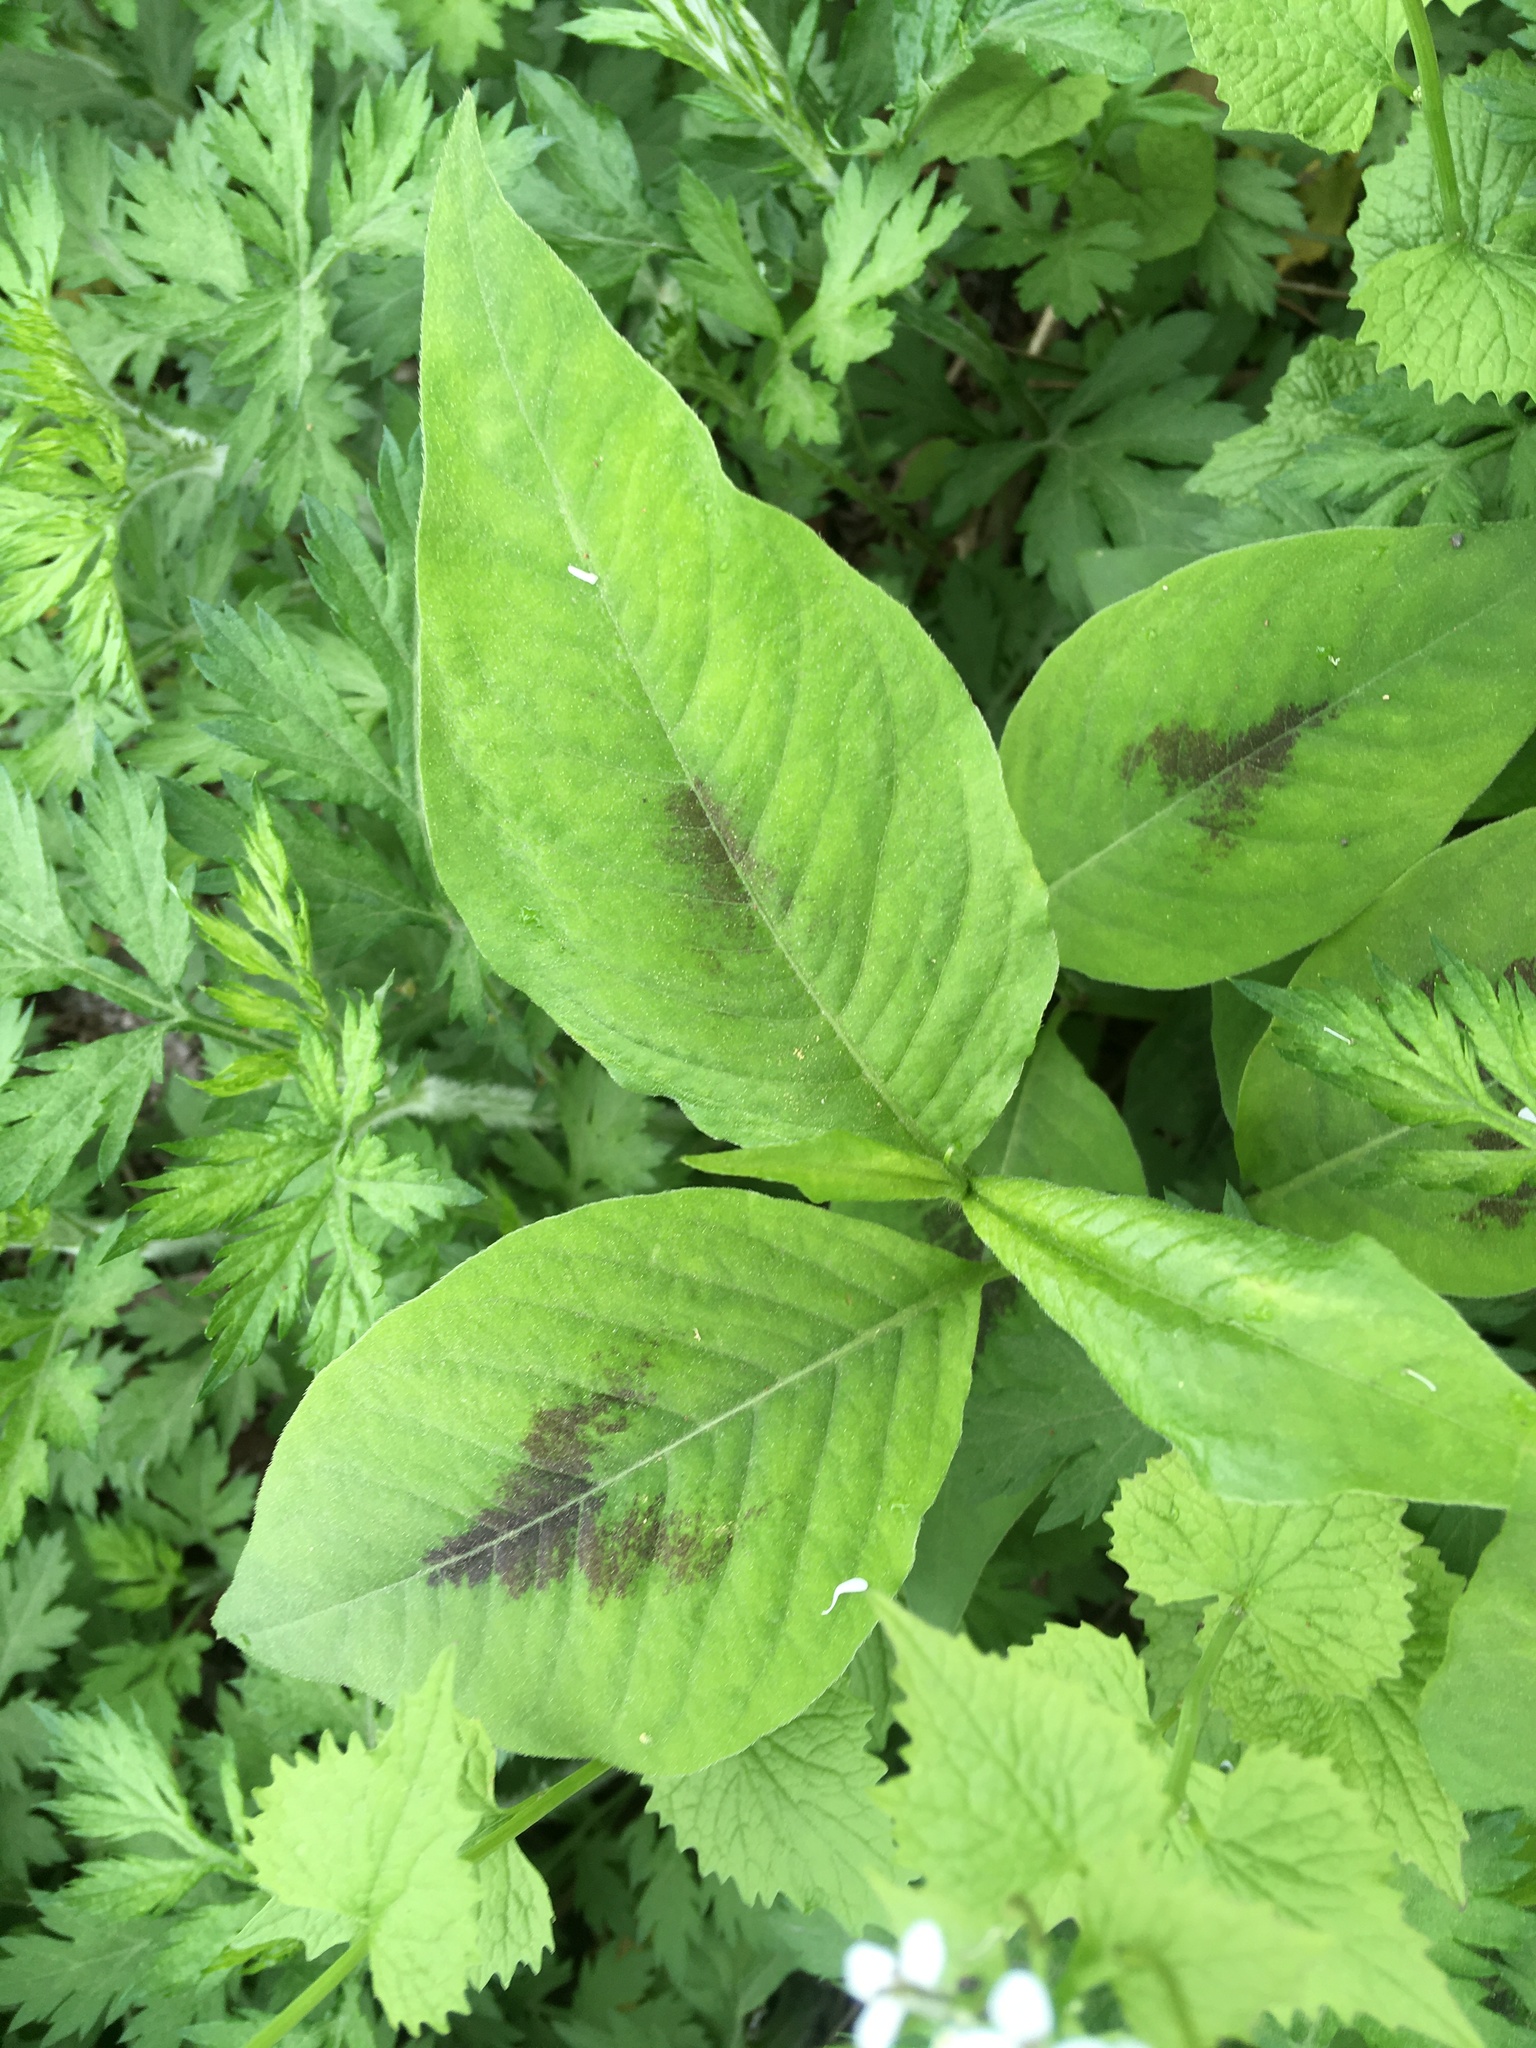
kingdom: Plantae
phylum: Tracheophyta
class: Magnoliopsida
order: Caryophyllales
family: Polygonaceae
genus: Persicaria
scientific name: Persicaria virginiana
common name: Jumpseed
